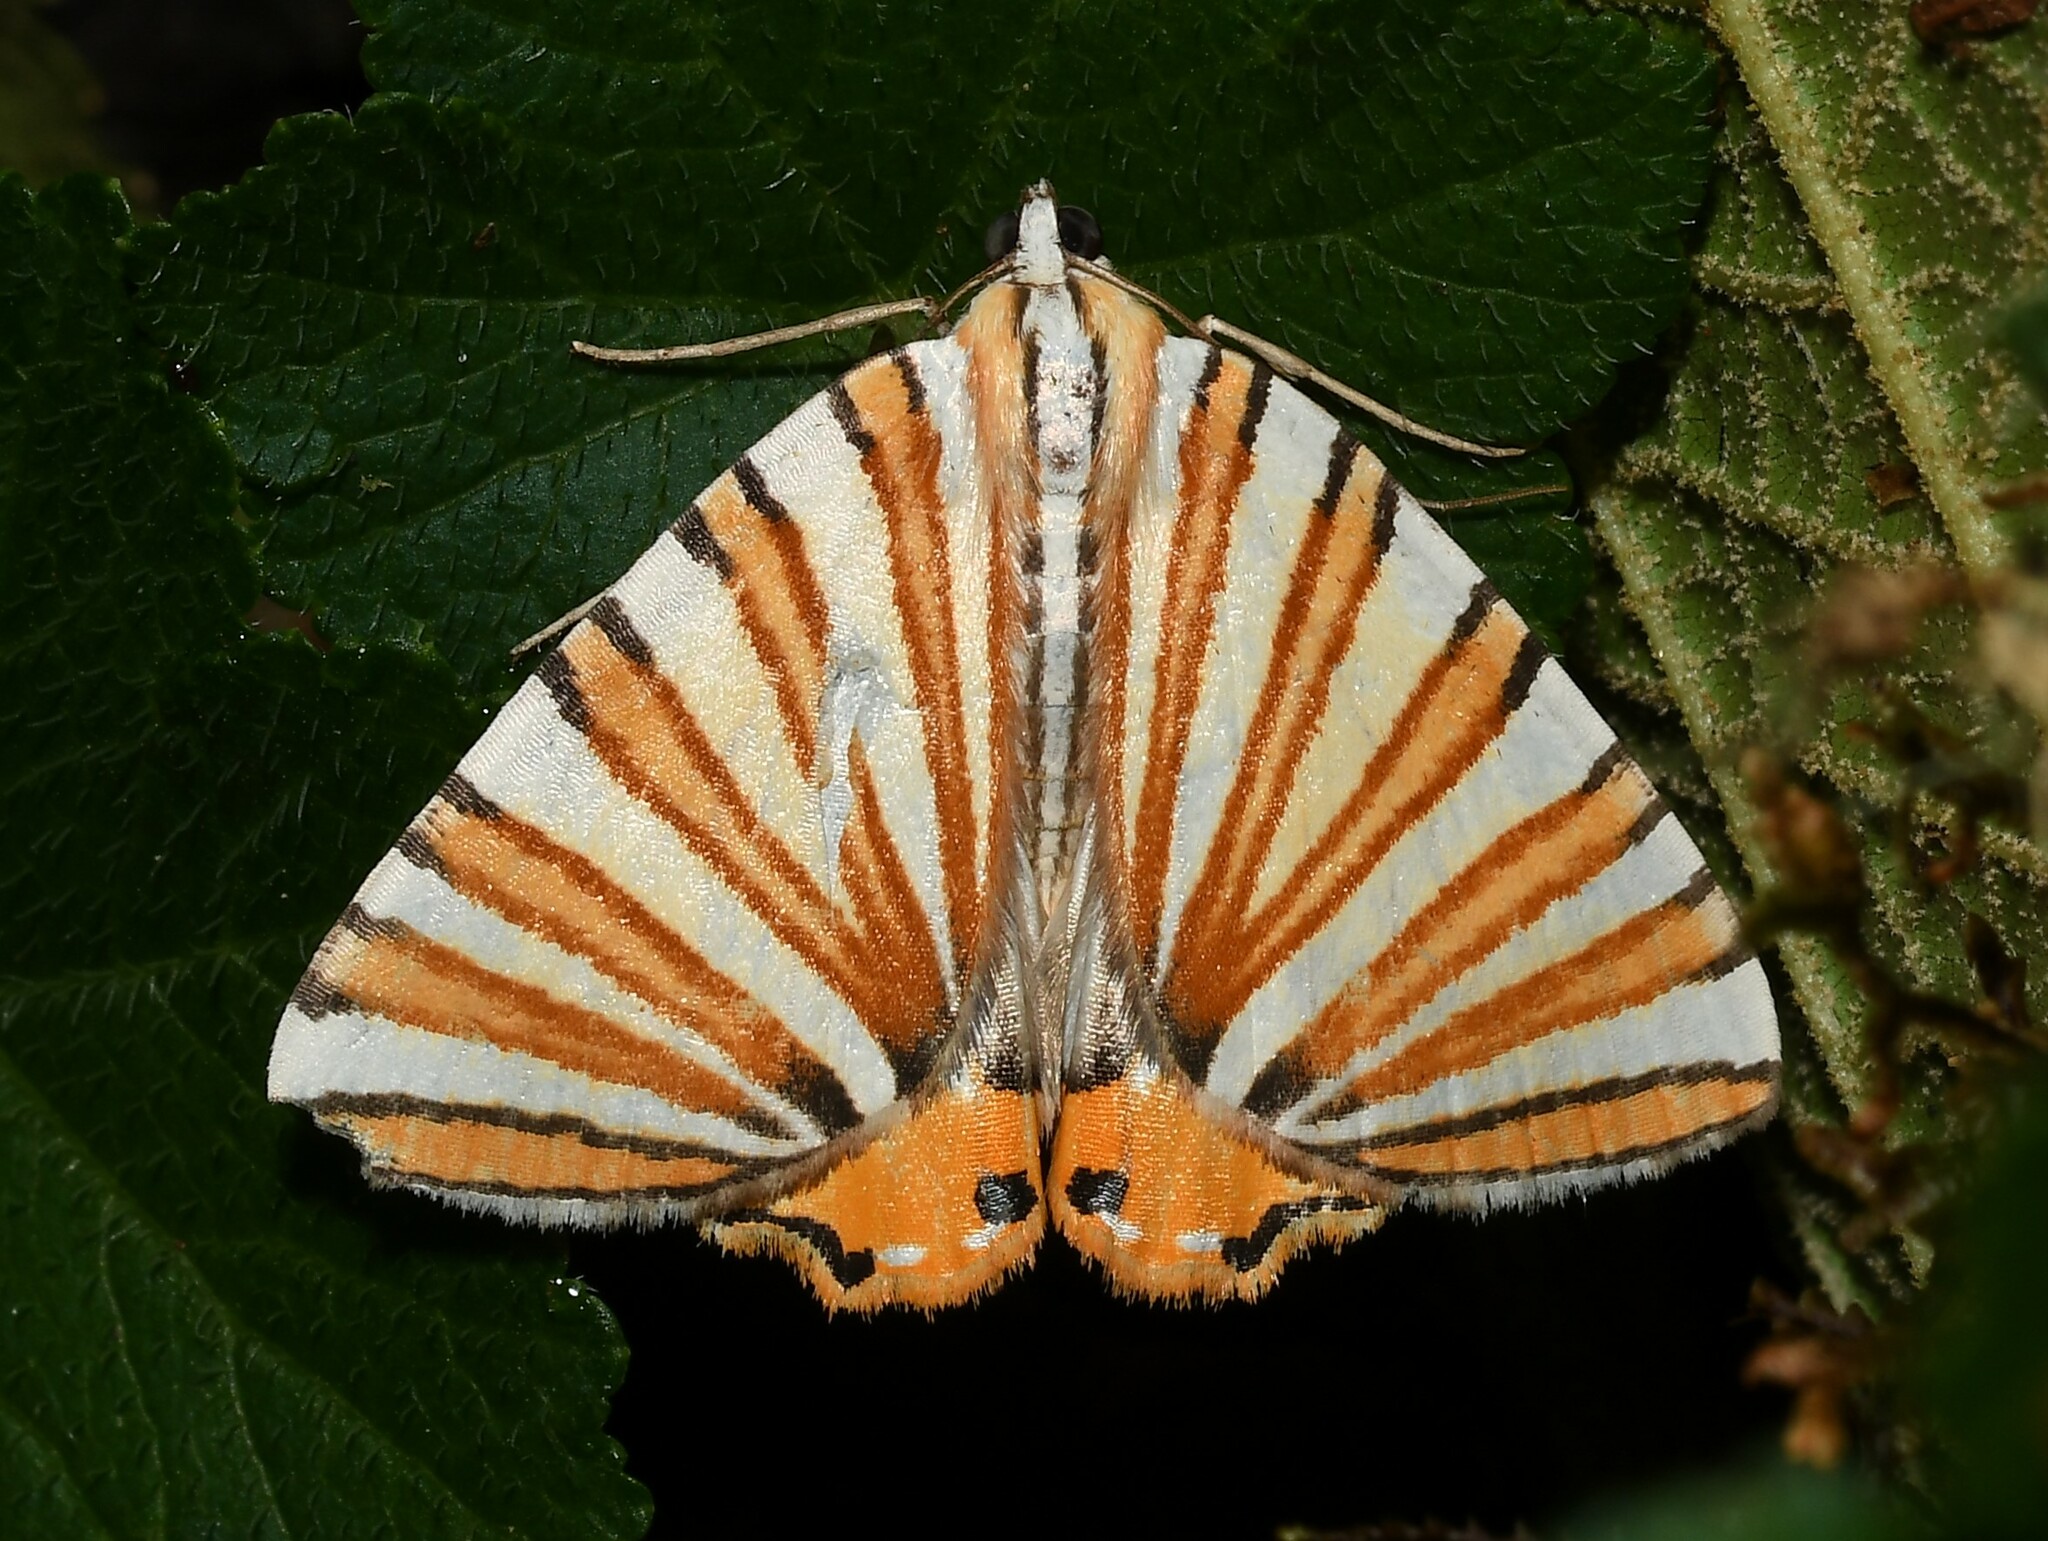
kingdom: Animalia
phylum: Arthropoda
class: Insecta
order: Lepidoptera
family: Geometridae
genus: Pityeja
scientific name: Pityeja histrionaria
